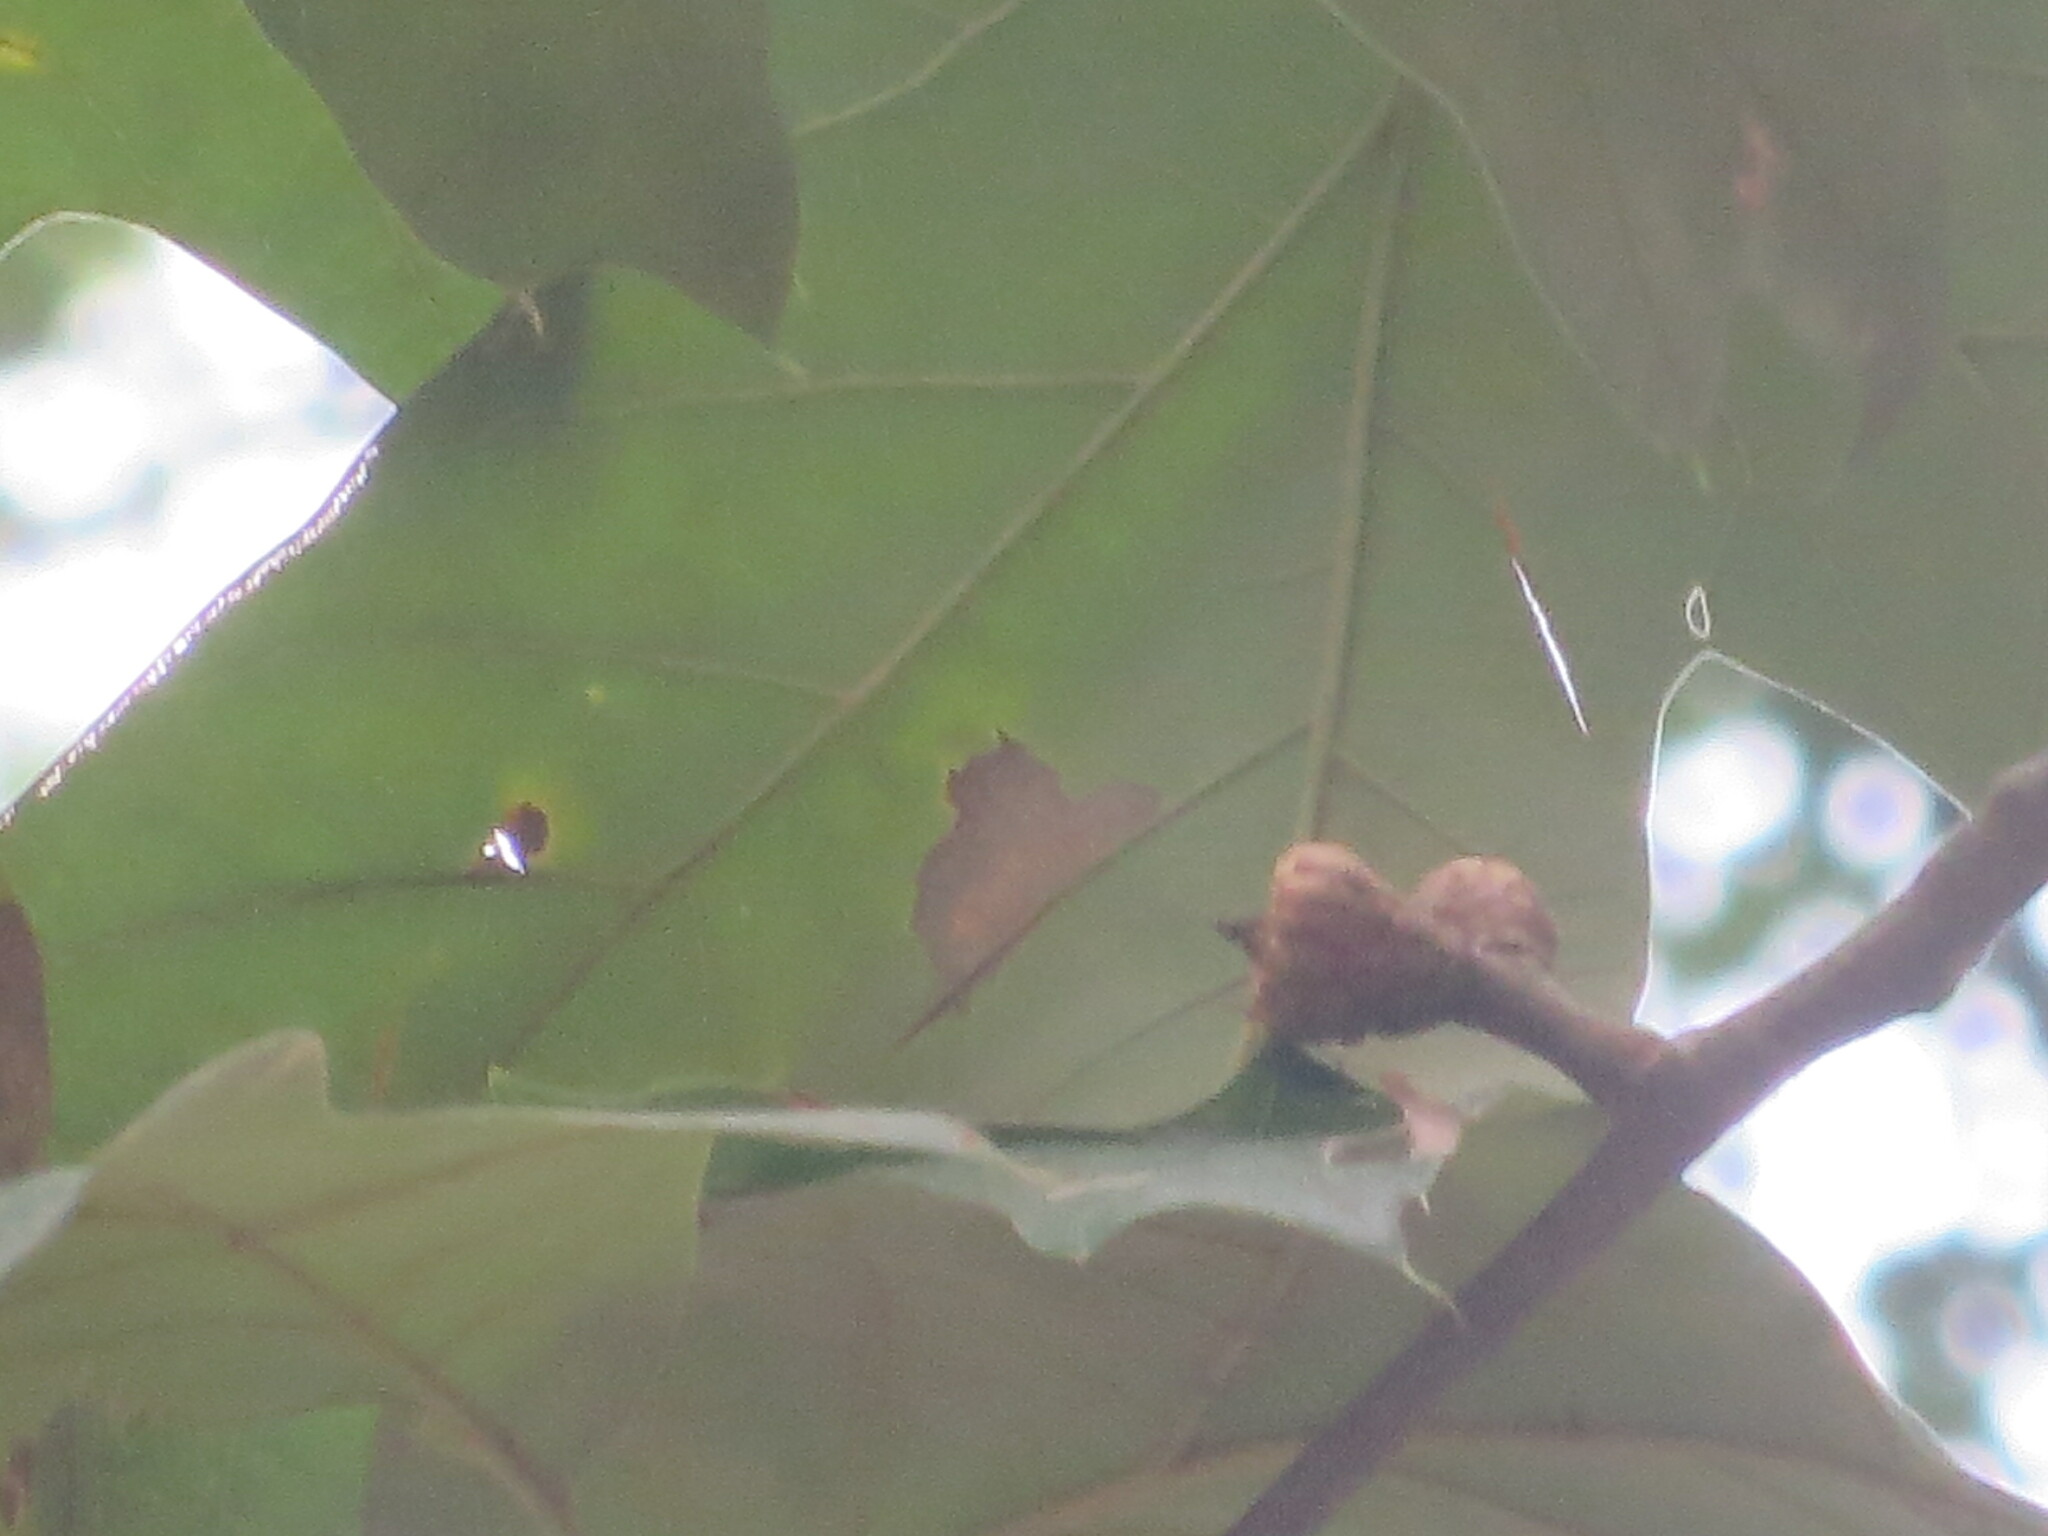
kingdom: Plantae
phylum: Tracheophyta
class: Magnoliopsida
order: Fagales
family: Fagaceae
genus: Quercus
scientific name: Quercus falcata
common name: Southern red oak
